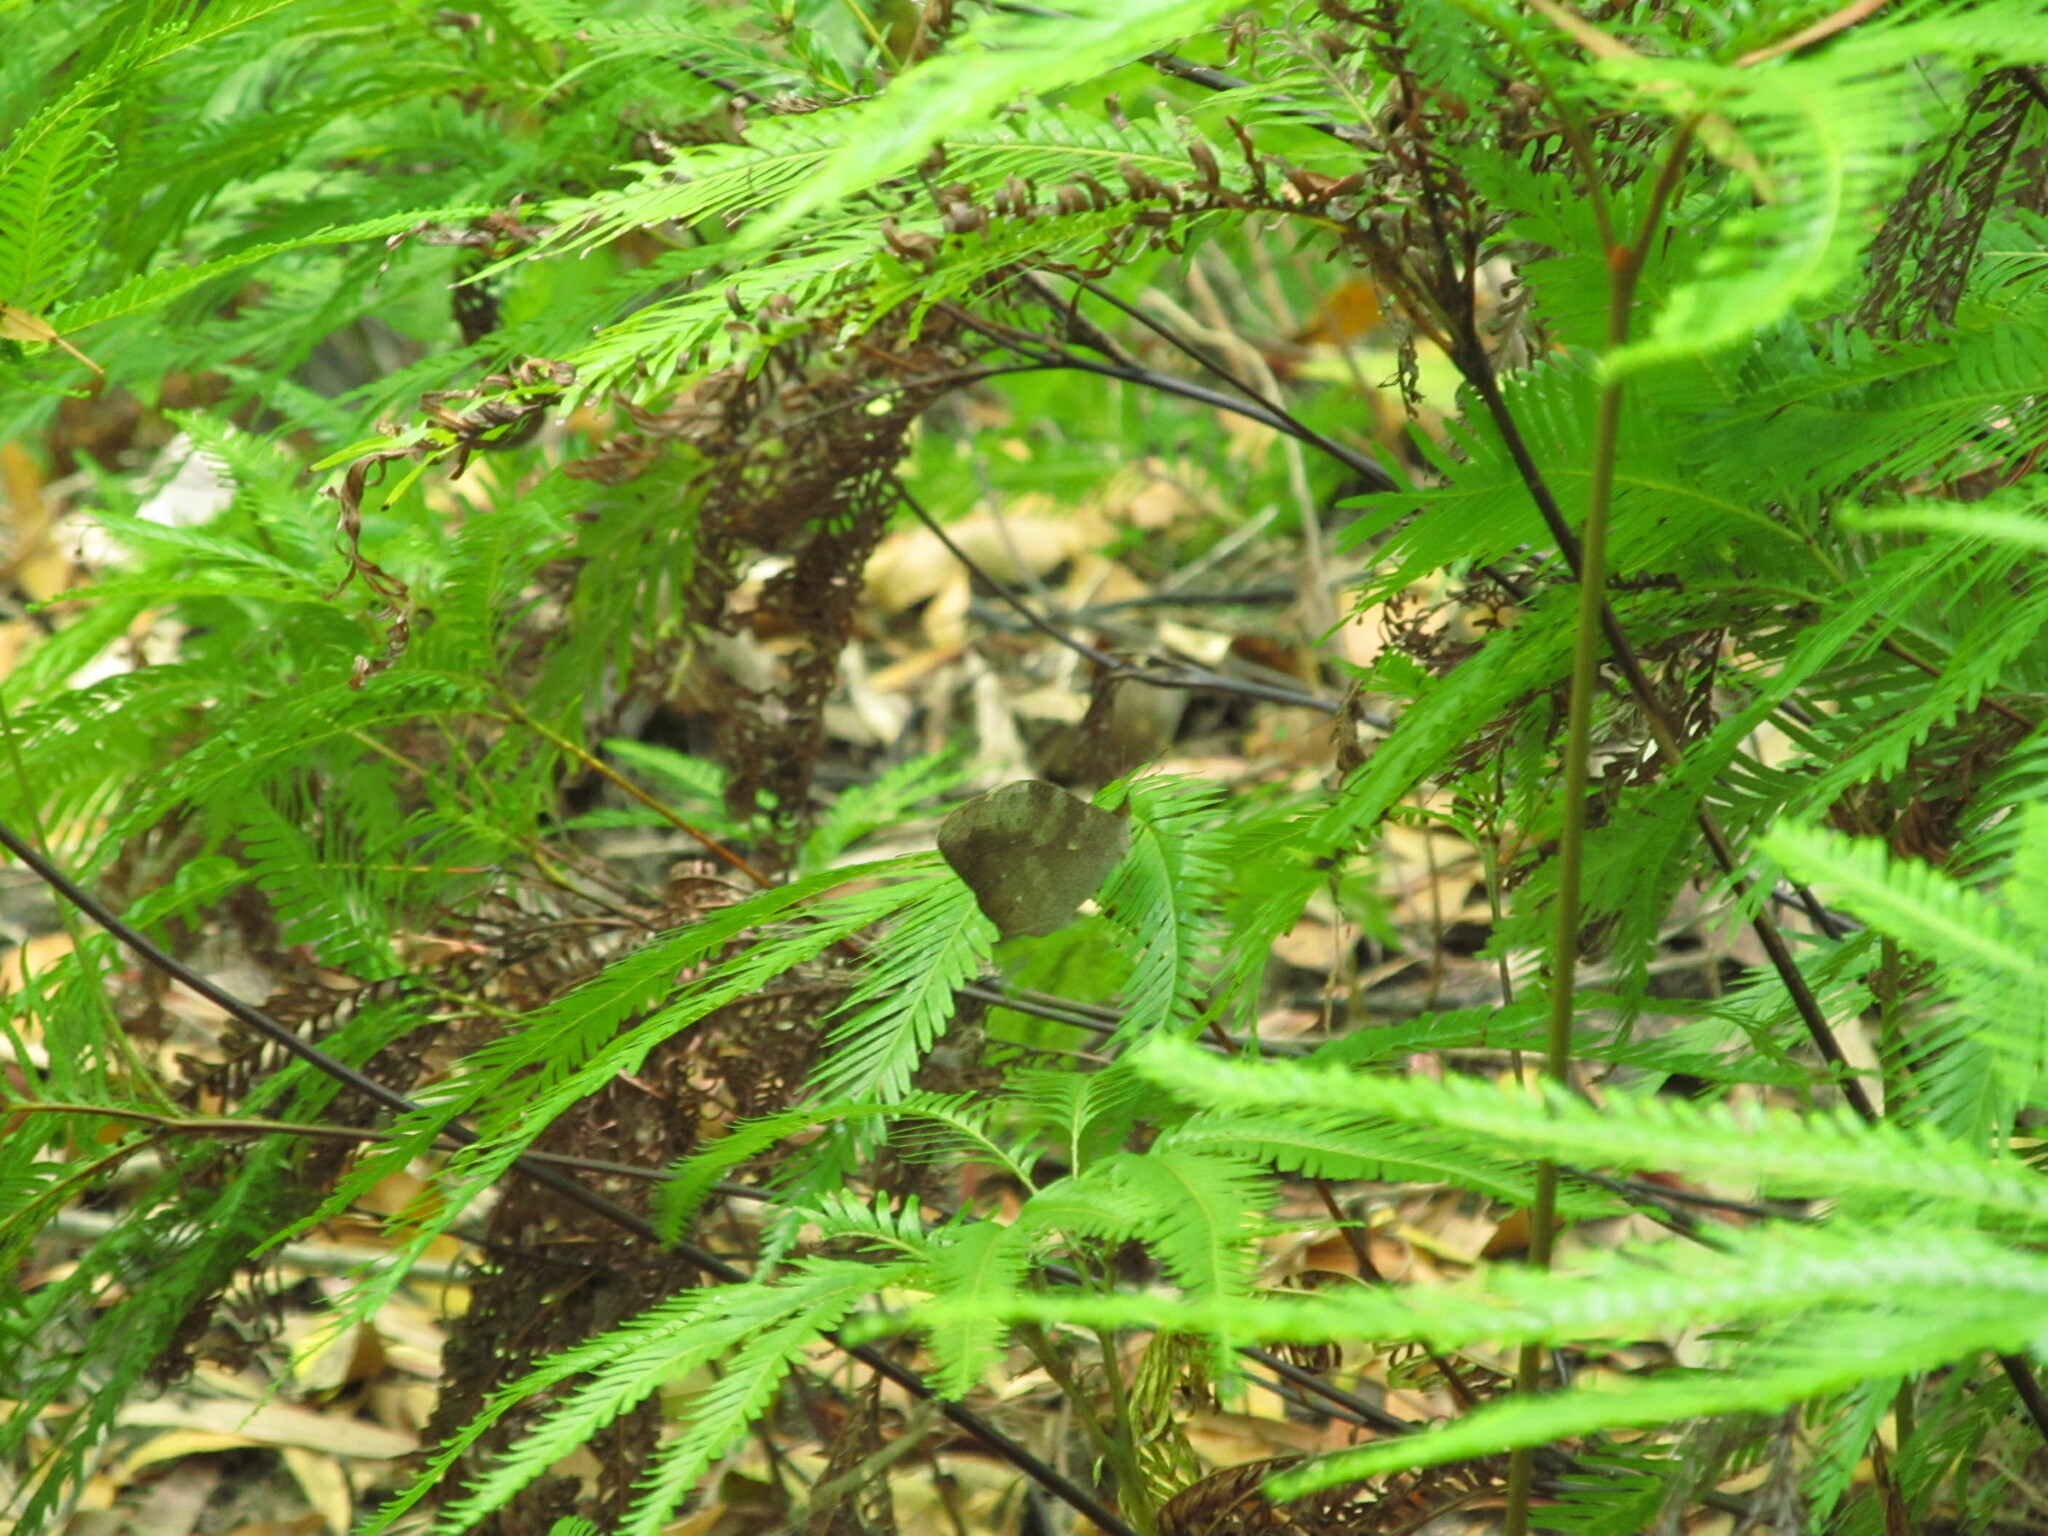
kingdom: Animalia
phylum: Arthropoda
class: Insecta
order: Lepidoptera
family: Nymphalidae
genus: Heteronympha
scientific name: Heteronympha mirifica
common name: Wonder brown
